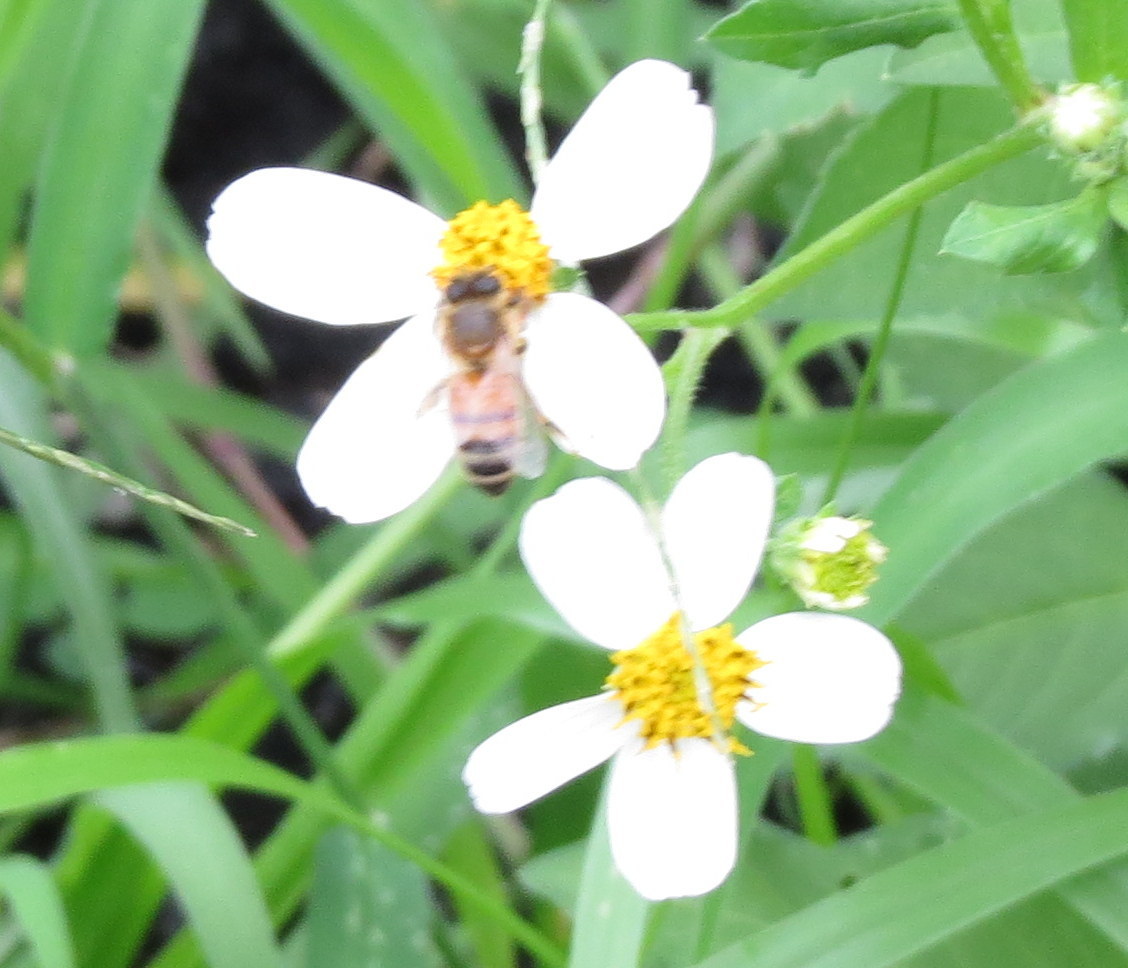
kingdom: Animalia
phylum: Arthropoda
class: Insecta
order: Hymenoptera
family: Apidae
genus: Apis
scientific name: Apis mellifera
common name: Honey bee
